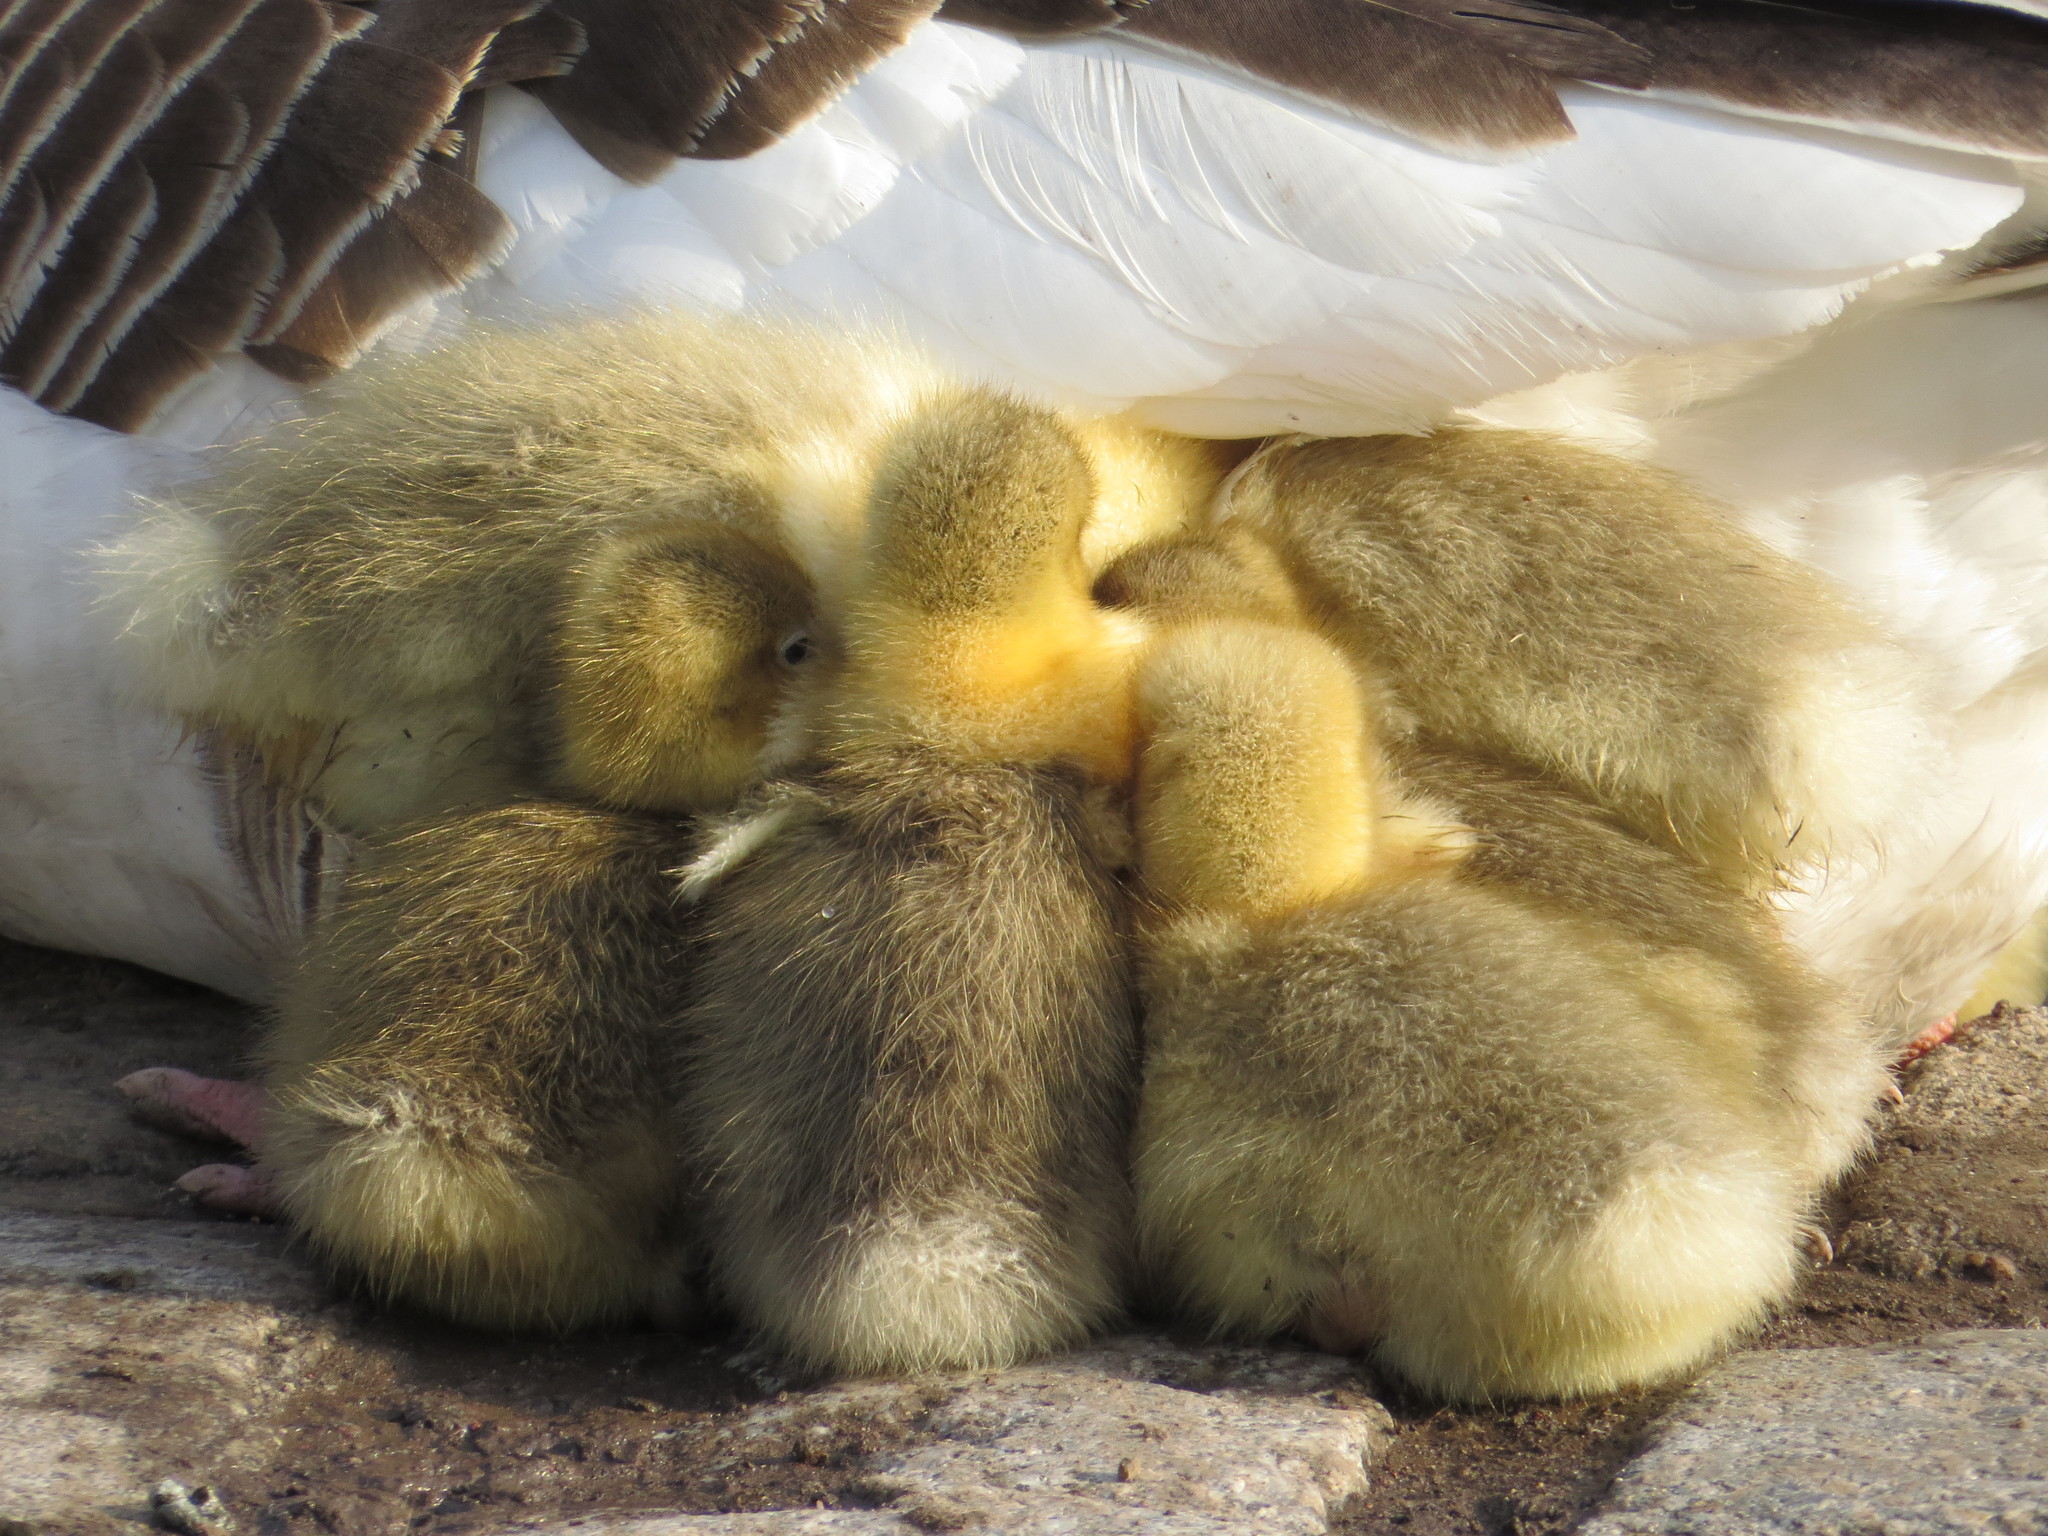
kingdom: Animalia
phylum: Chordata
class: Aves
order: Anseriformes
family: Anatidae
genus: Anser
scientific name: Anser anser
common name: Greylag goose
